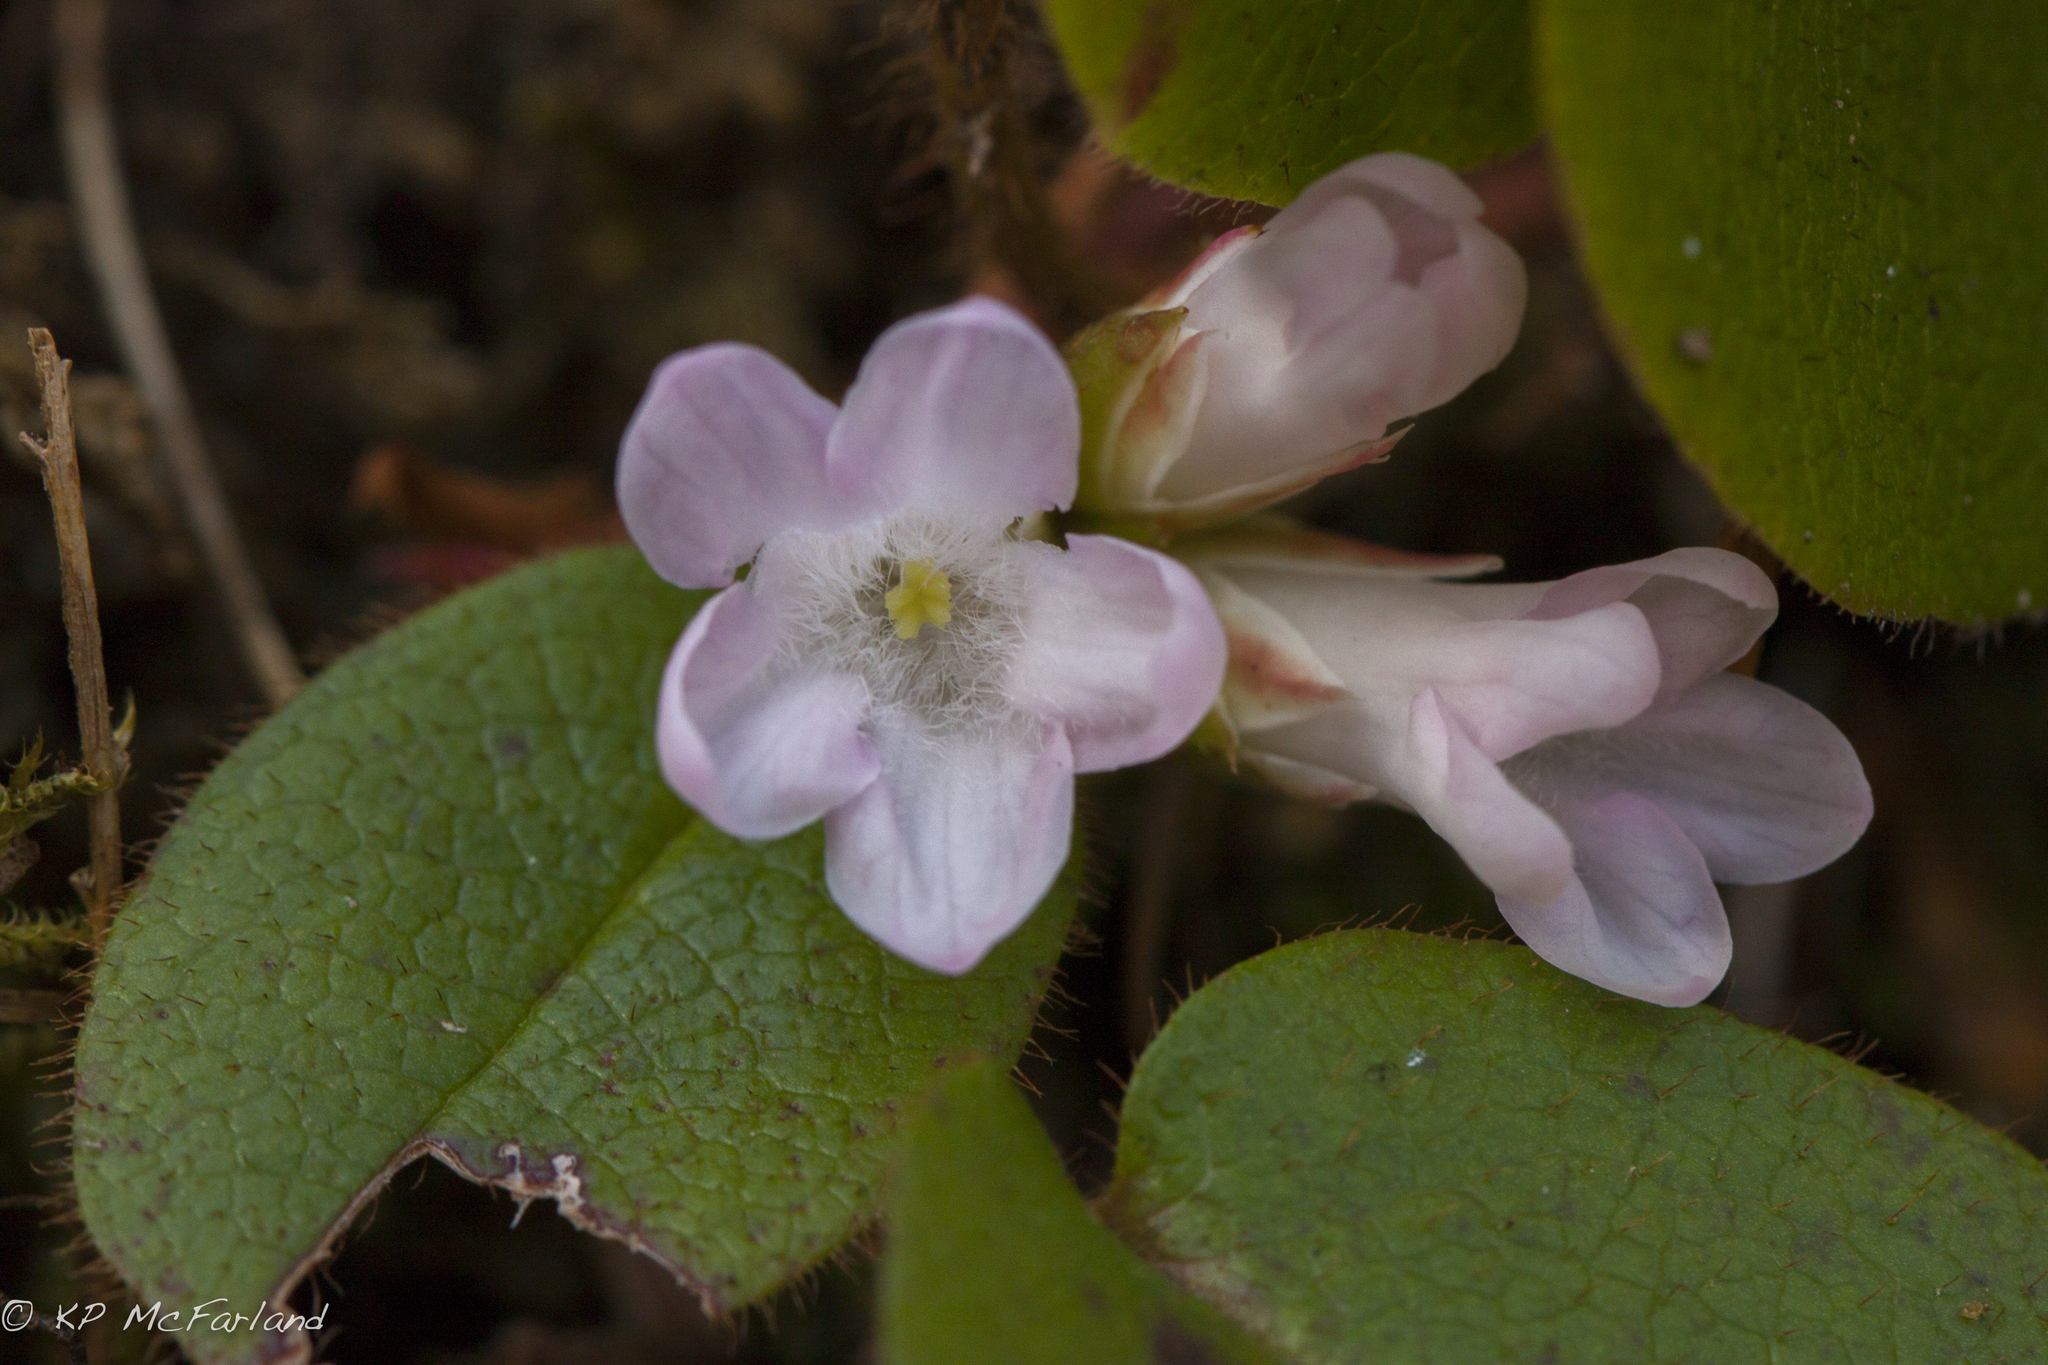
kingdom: Plantae
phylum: Tracheophyta
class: Magnoliopsida
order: Ericales
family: Ericaceae
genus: Epigaea
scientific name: Epigaea repens
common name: Gravelroot
